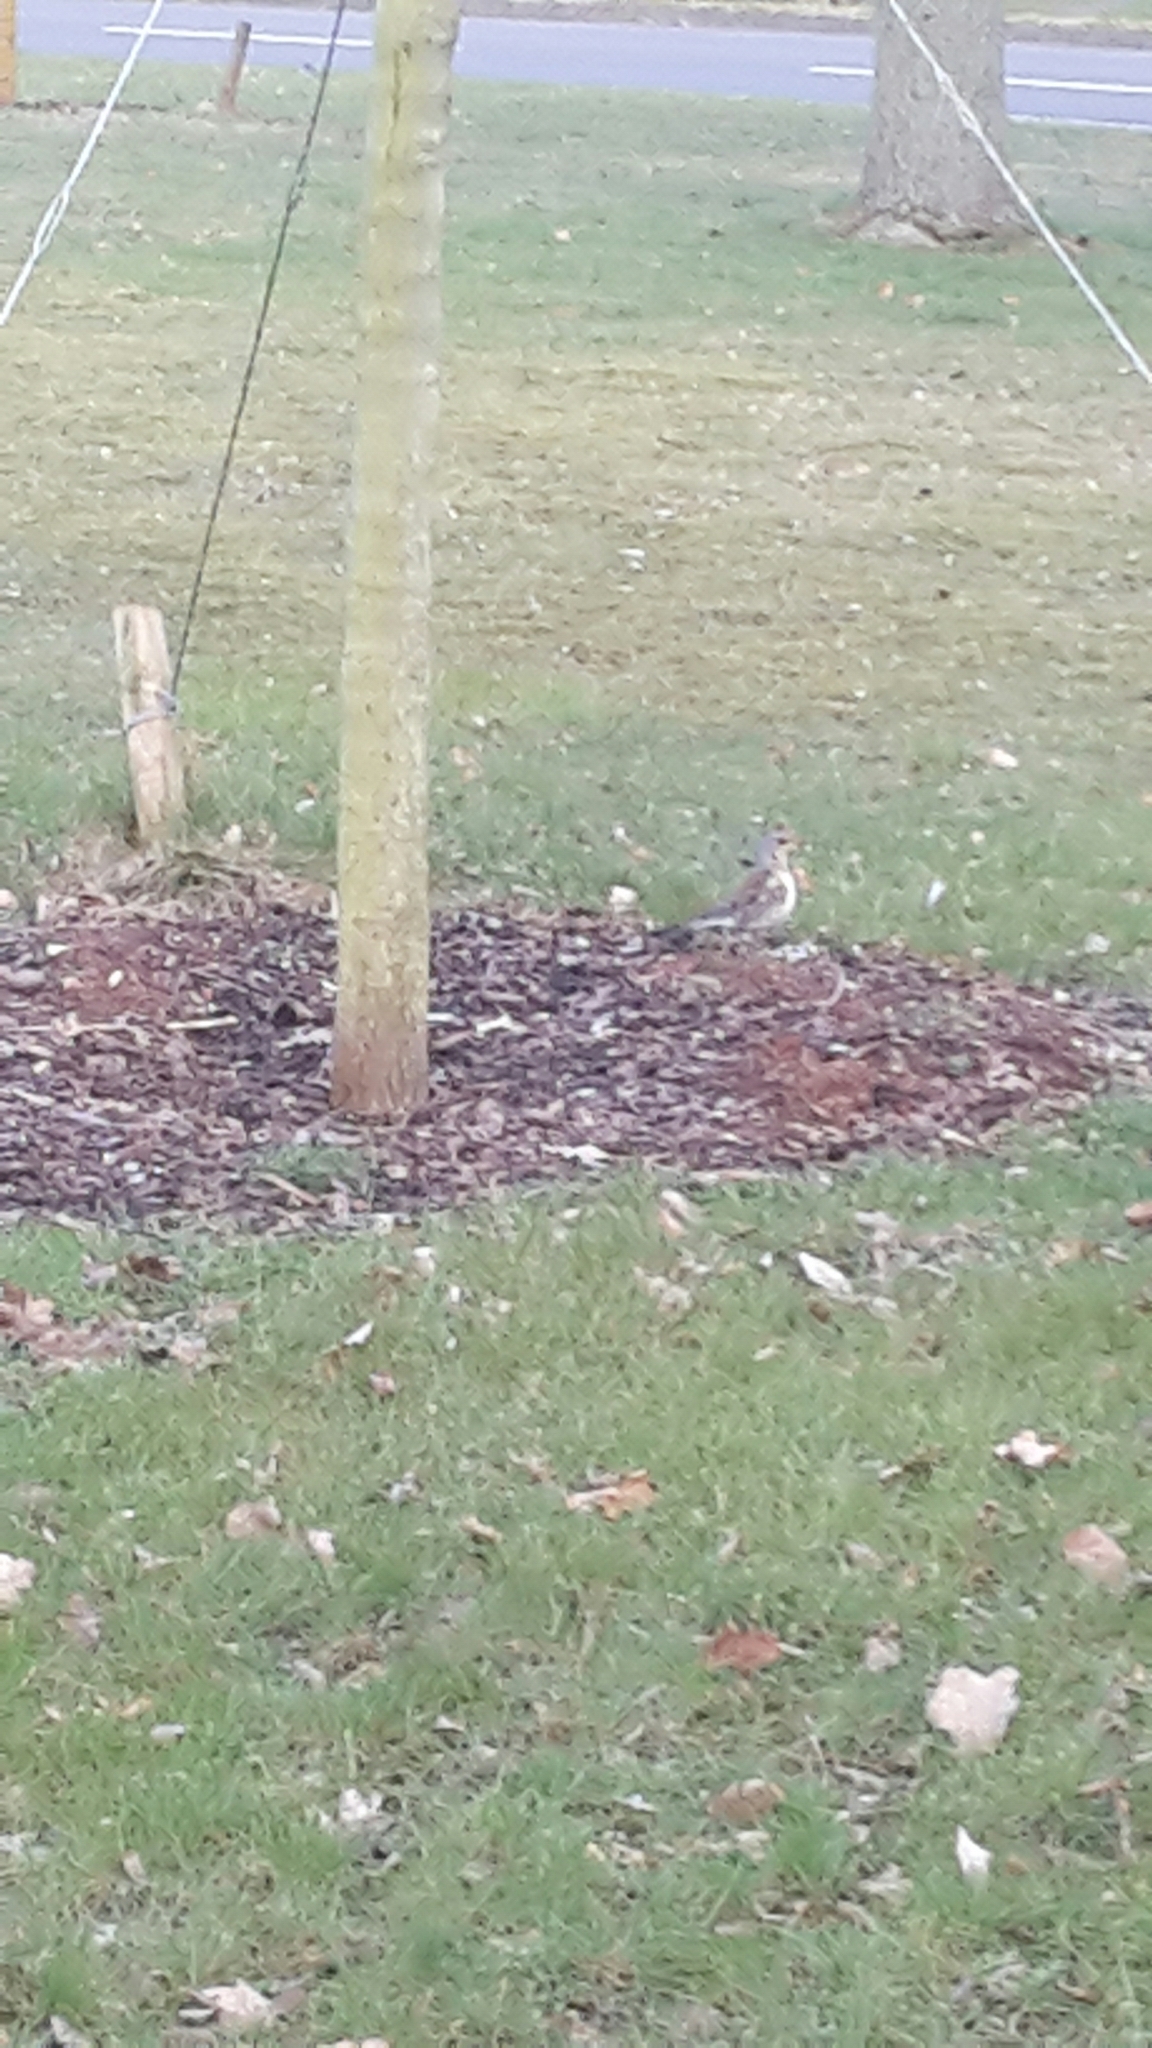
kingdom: Animalia
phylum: Chordata
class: Aves
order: Passeriformes
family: Turdidae
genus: Turdus
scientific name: Turdus pilaris
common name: Fieldfare
